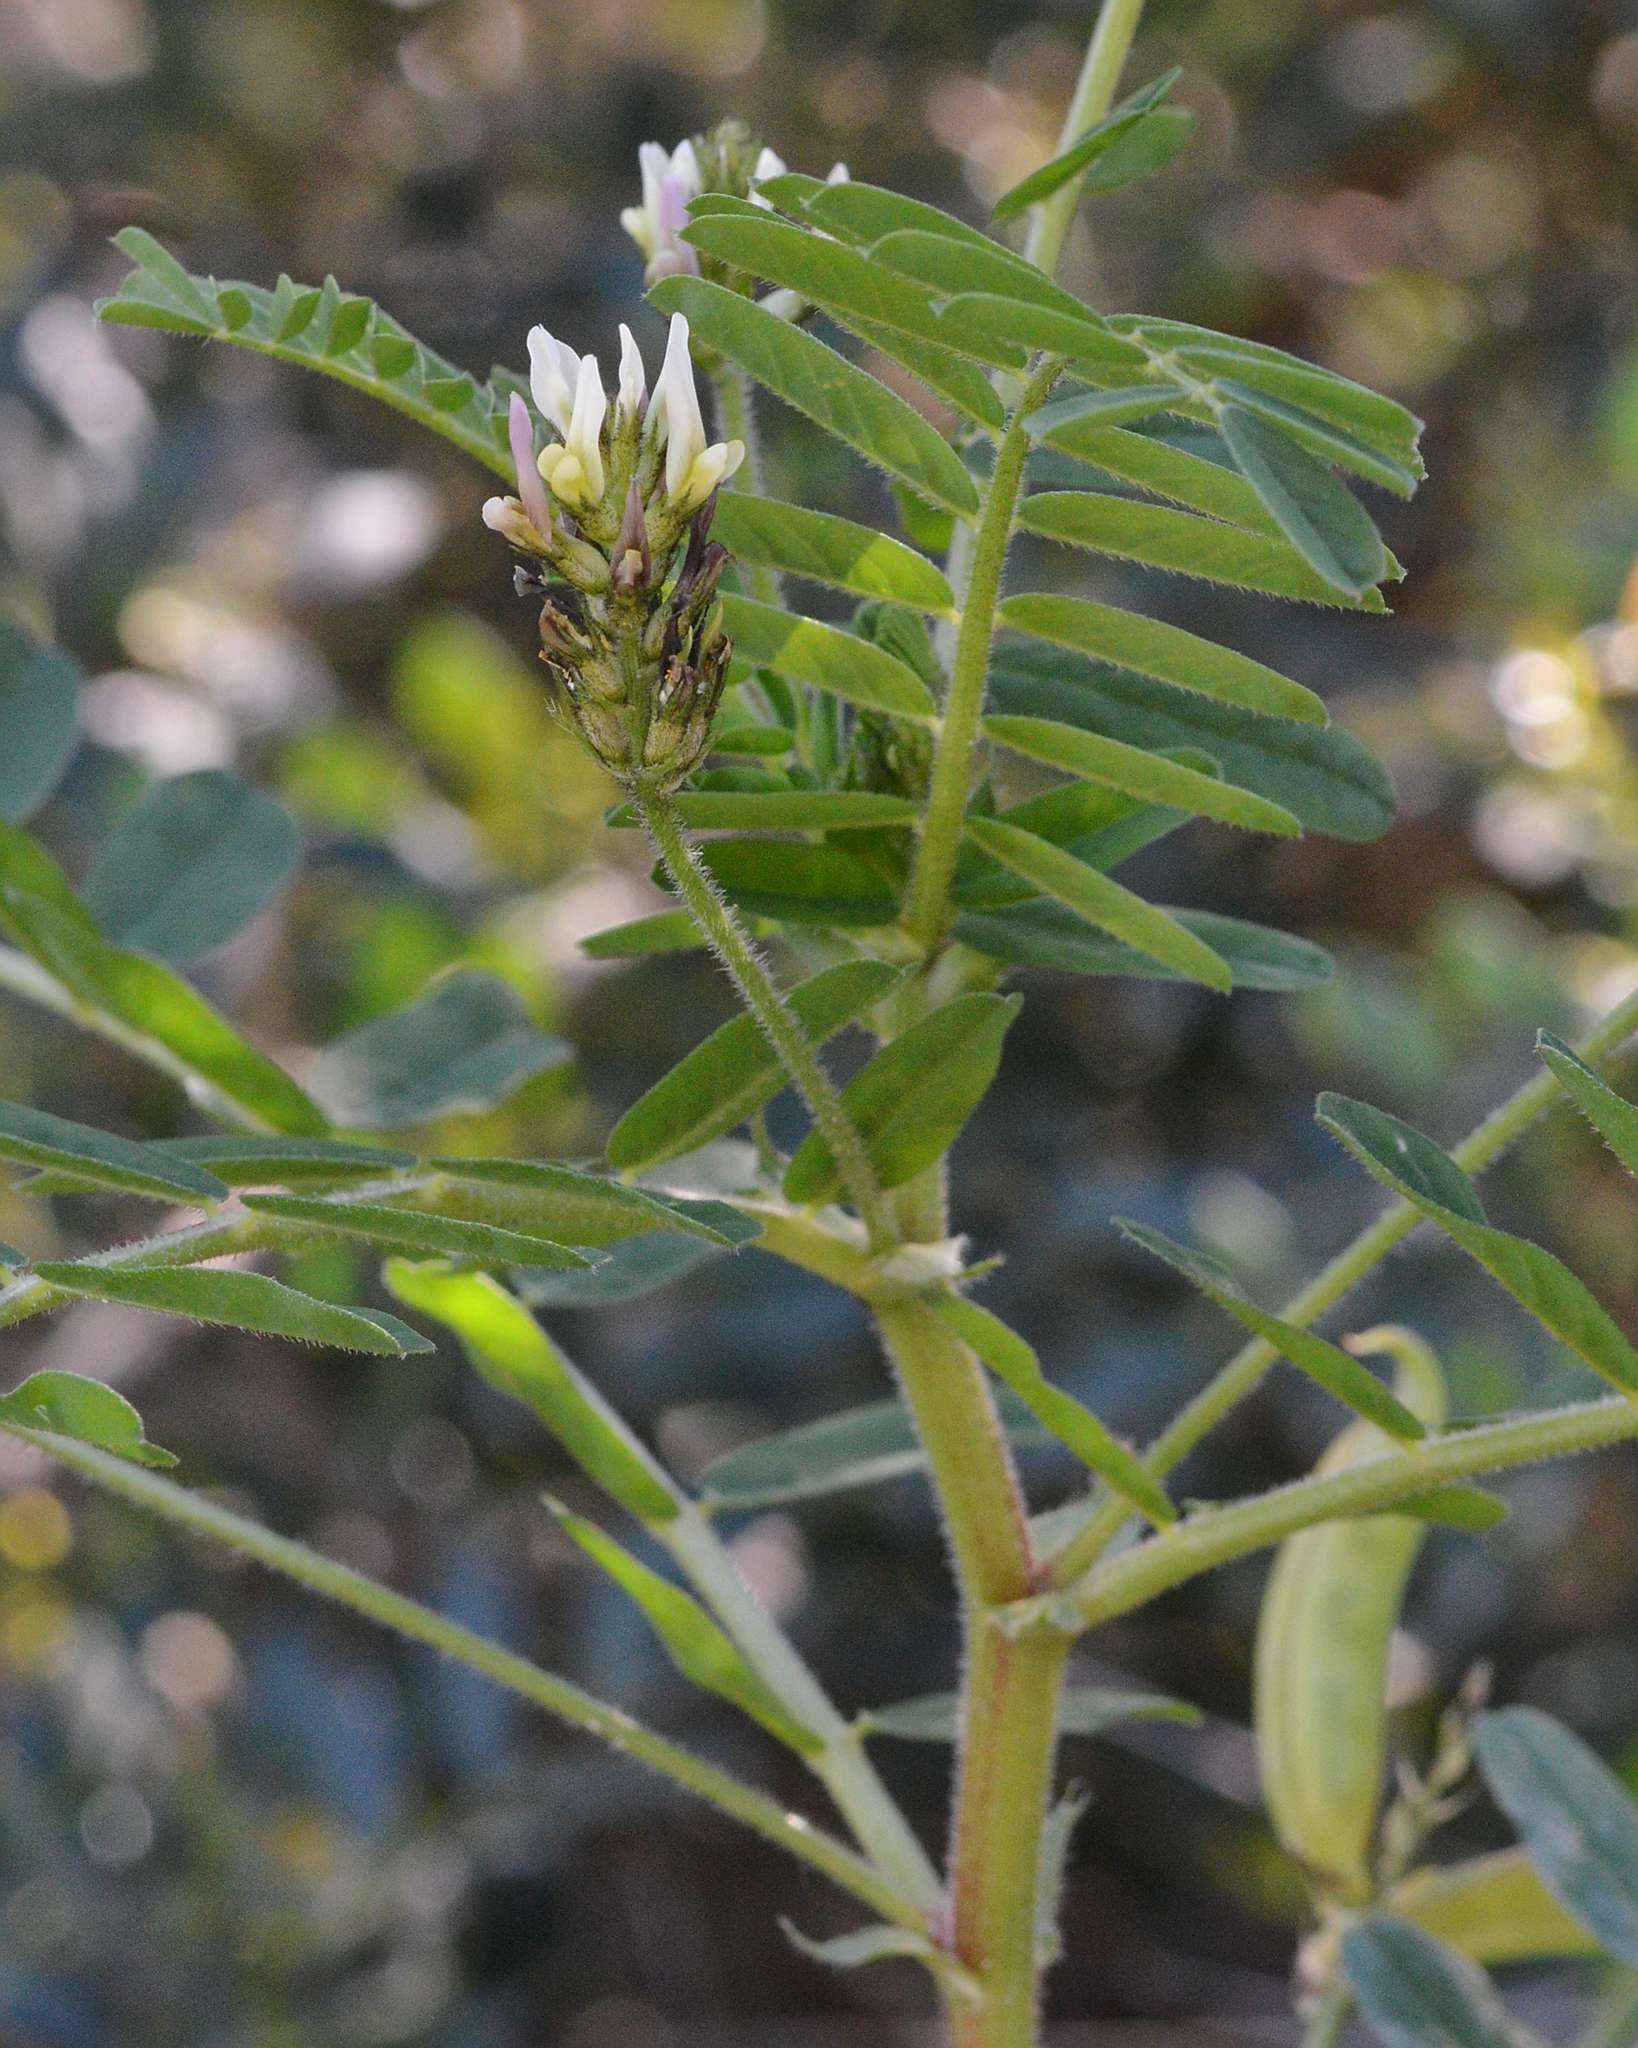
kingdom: Plantae
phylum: Tracheophyta
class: Magnoliopsida
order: Fabales
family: Fabaceae
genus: Astragalus
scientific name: Astragalus boeticus
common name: Milk-vetch
